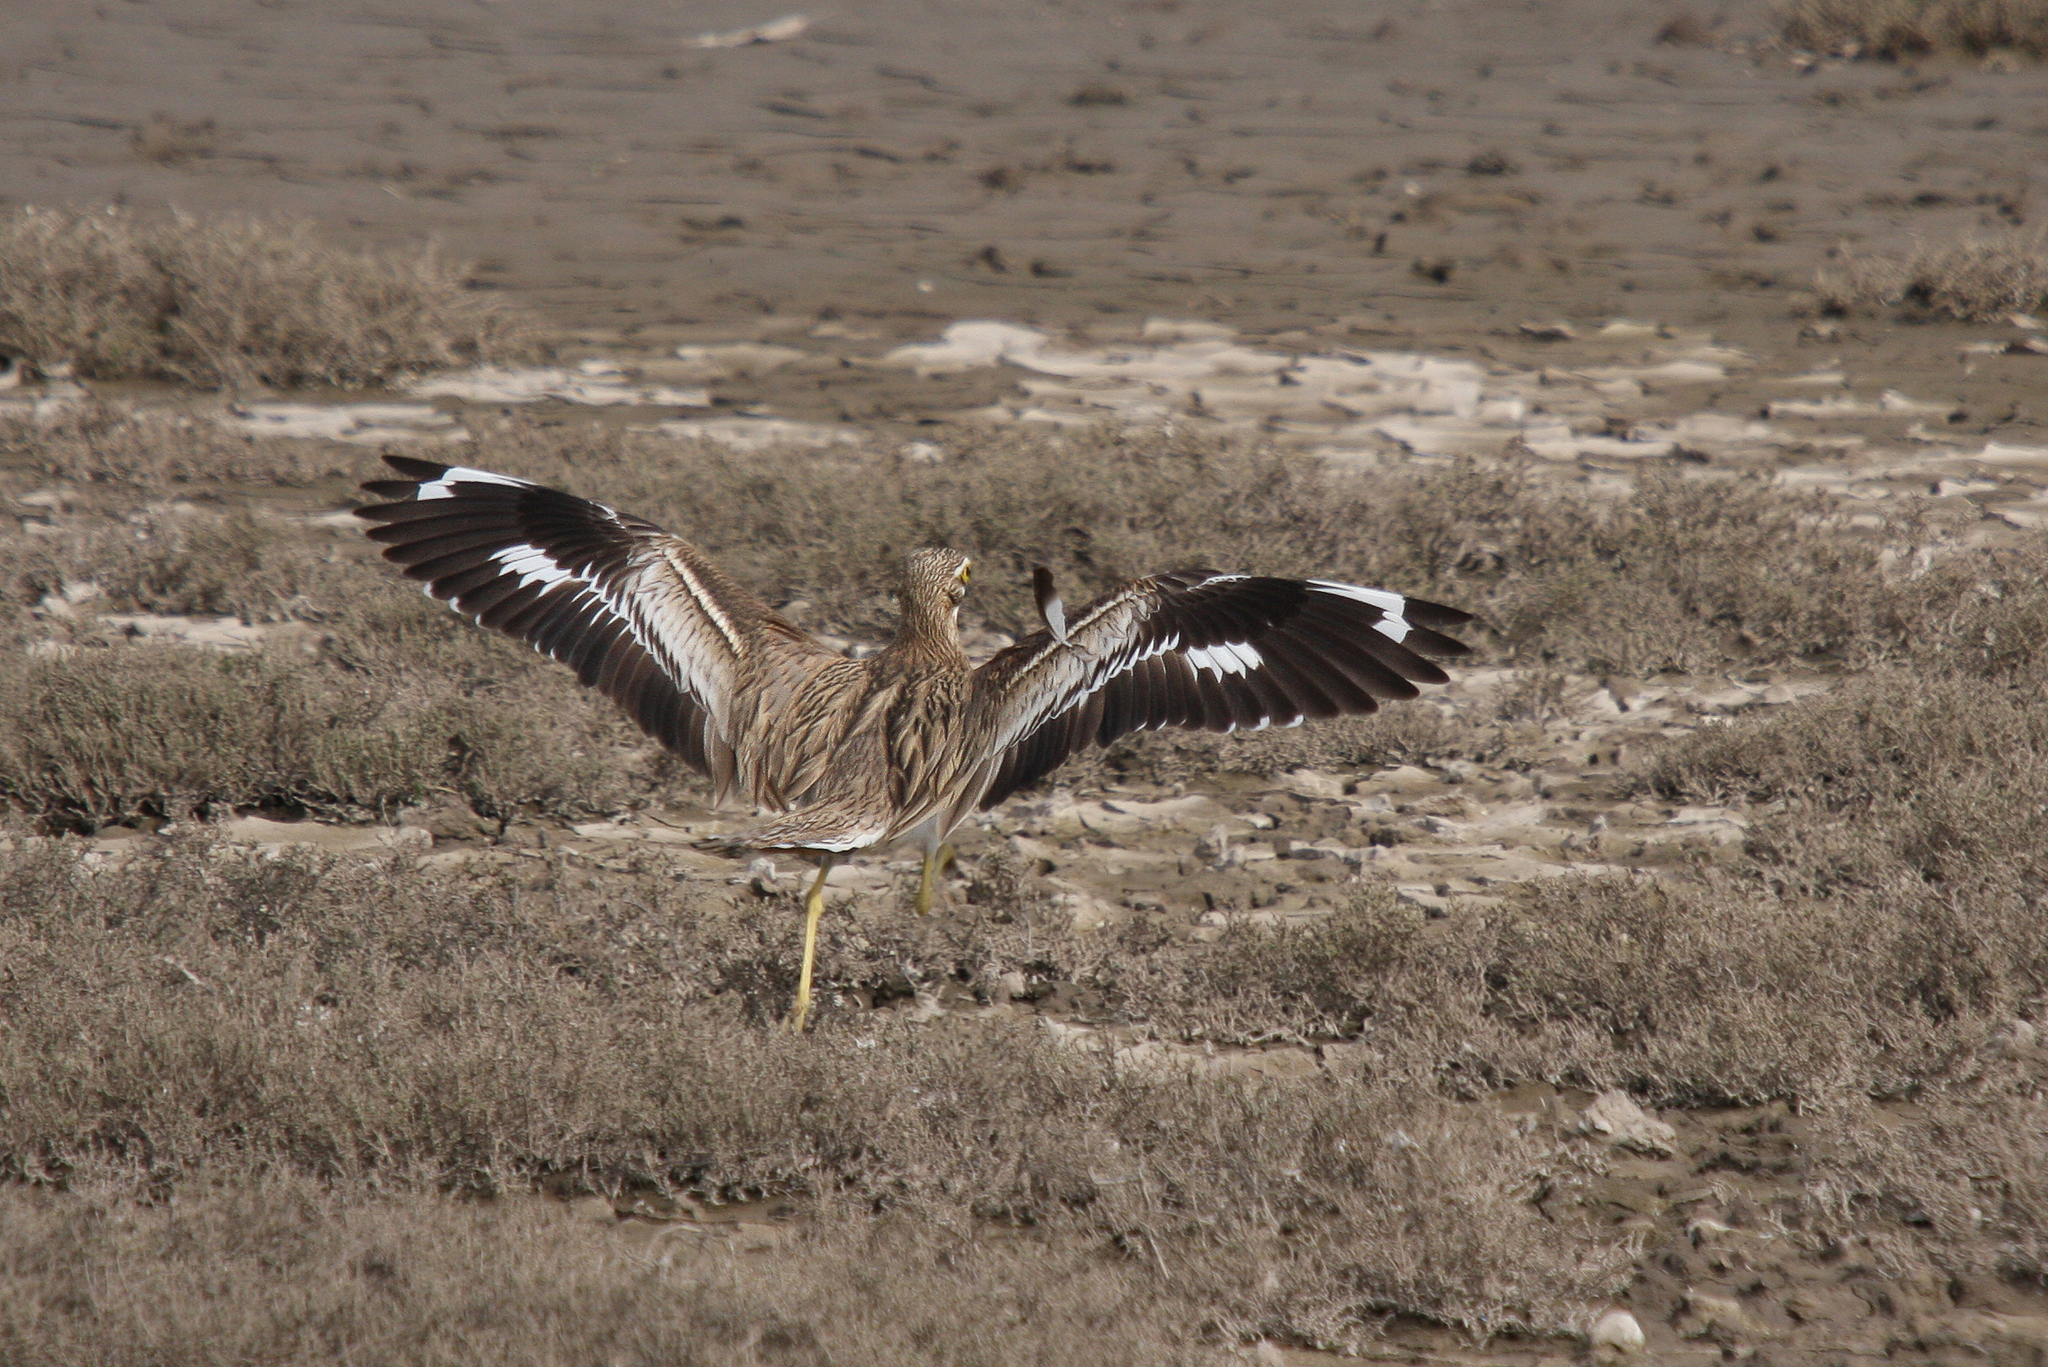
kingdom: Animalia
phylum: Chordata
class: Aves
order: Charadriiformes
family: Burhinidae
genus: Burhinus
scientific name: Burhinus oedicnemus
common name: Eurasian stone-curlew
